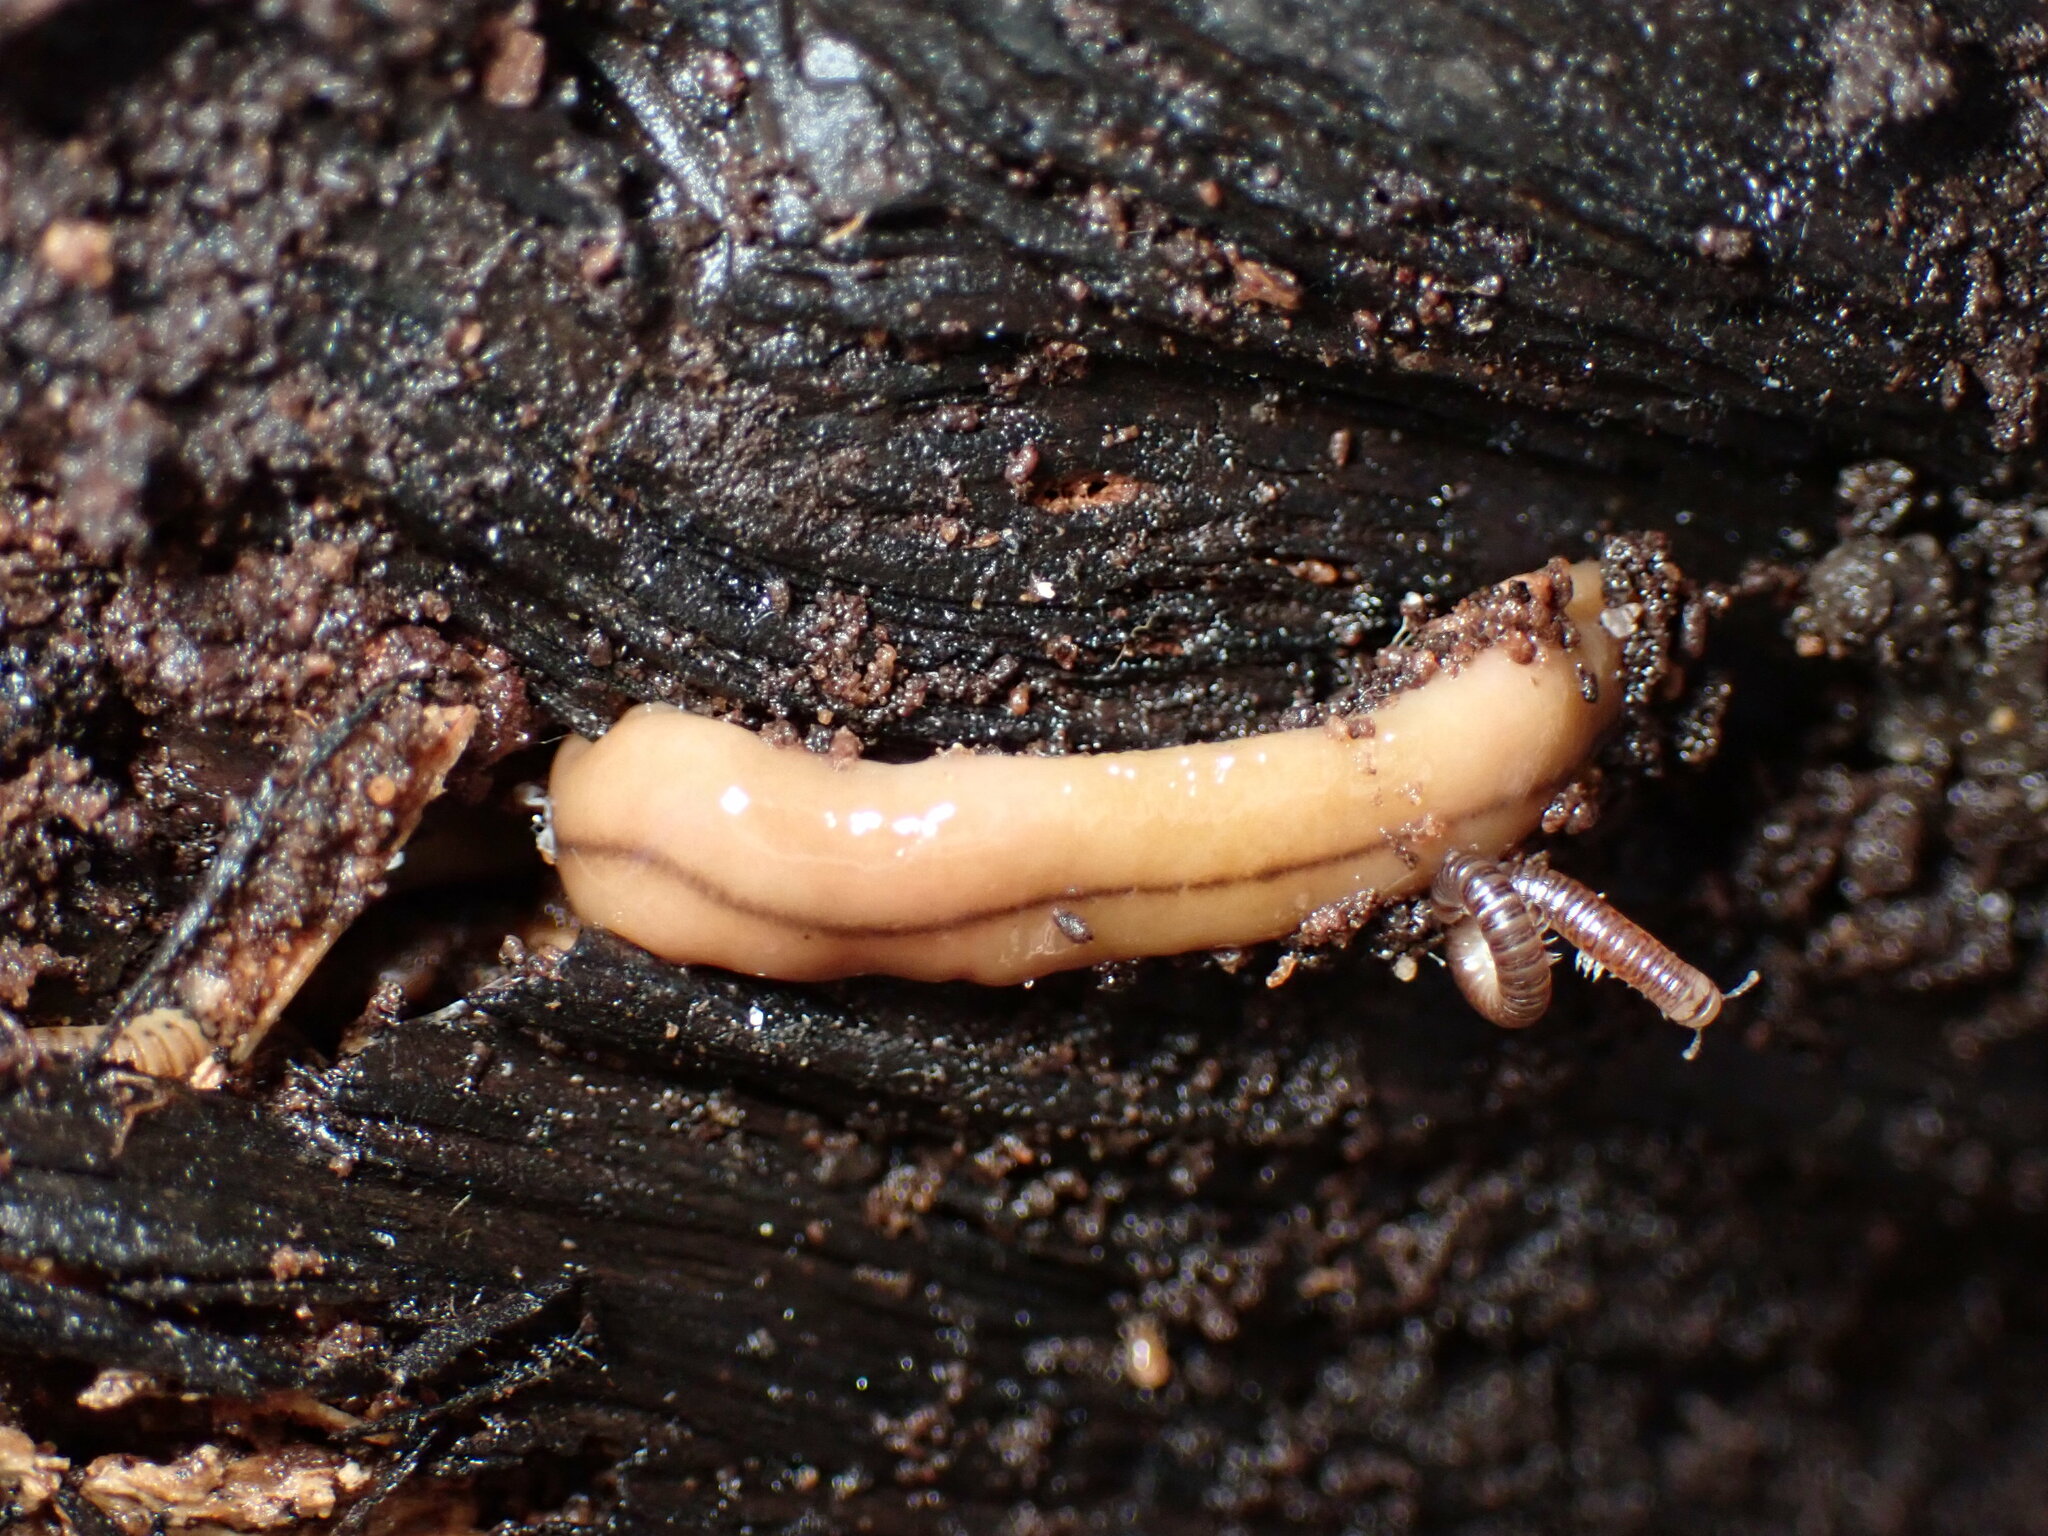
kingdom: Animalia
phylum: Platyhelminthes
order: Tricladida
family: Geoplanidae
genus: Bipalium
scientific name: Bipalium adventitium
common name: Land planarian
